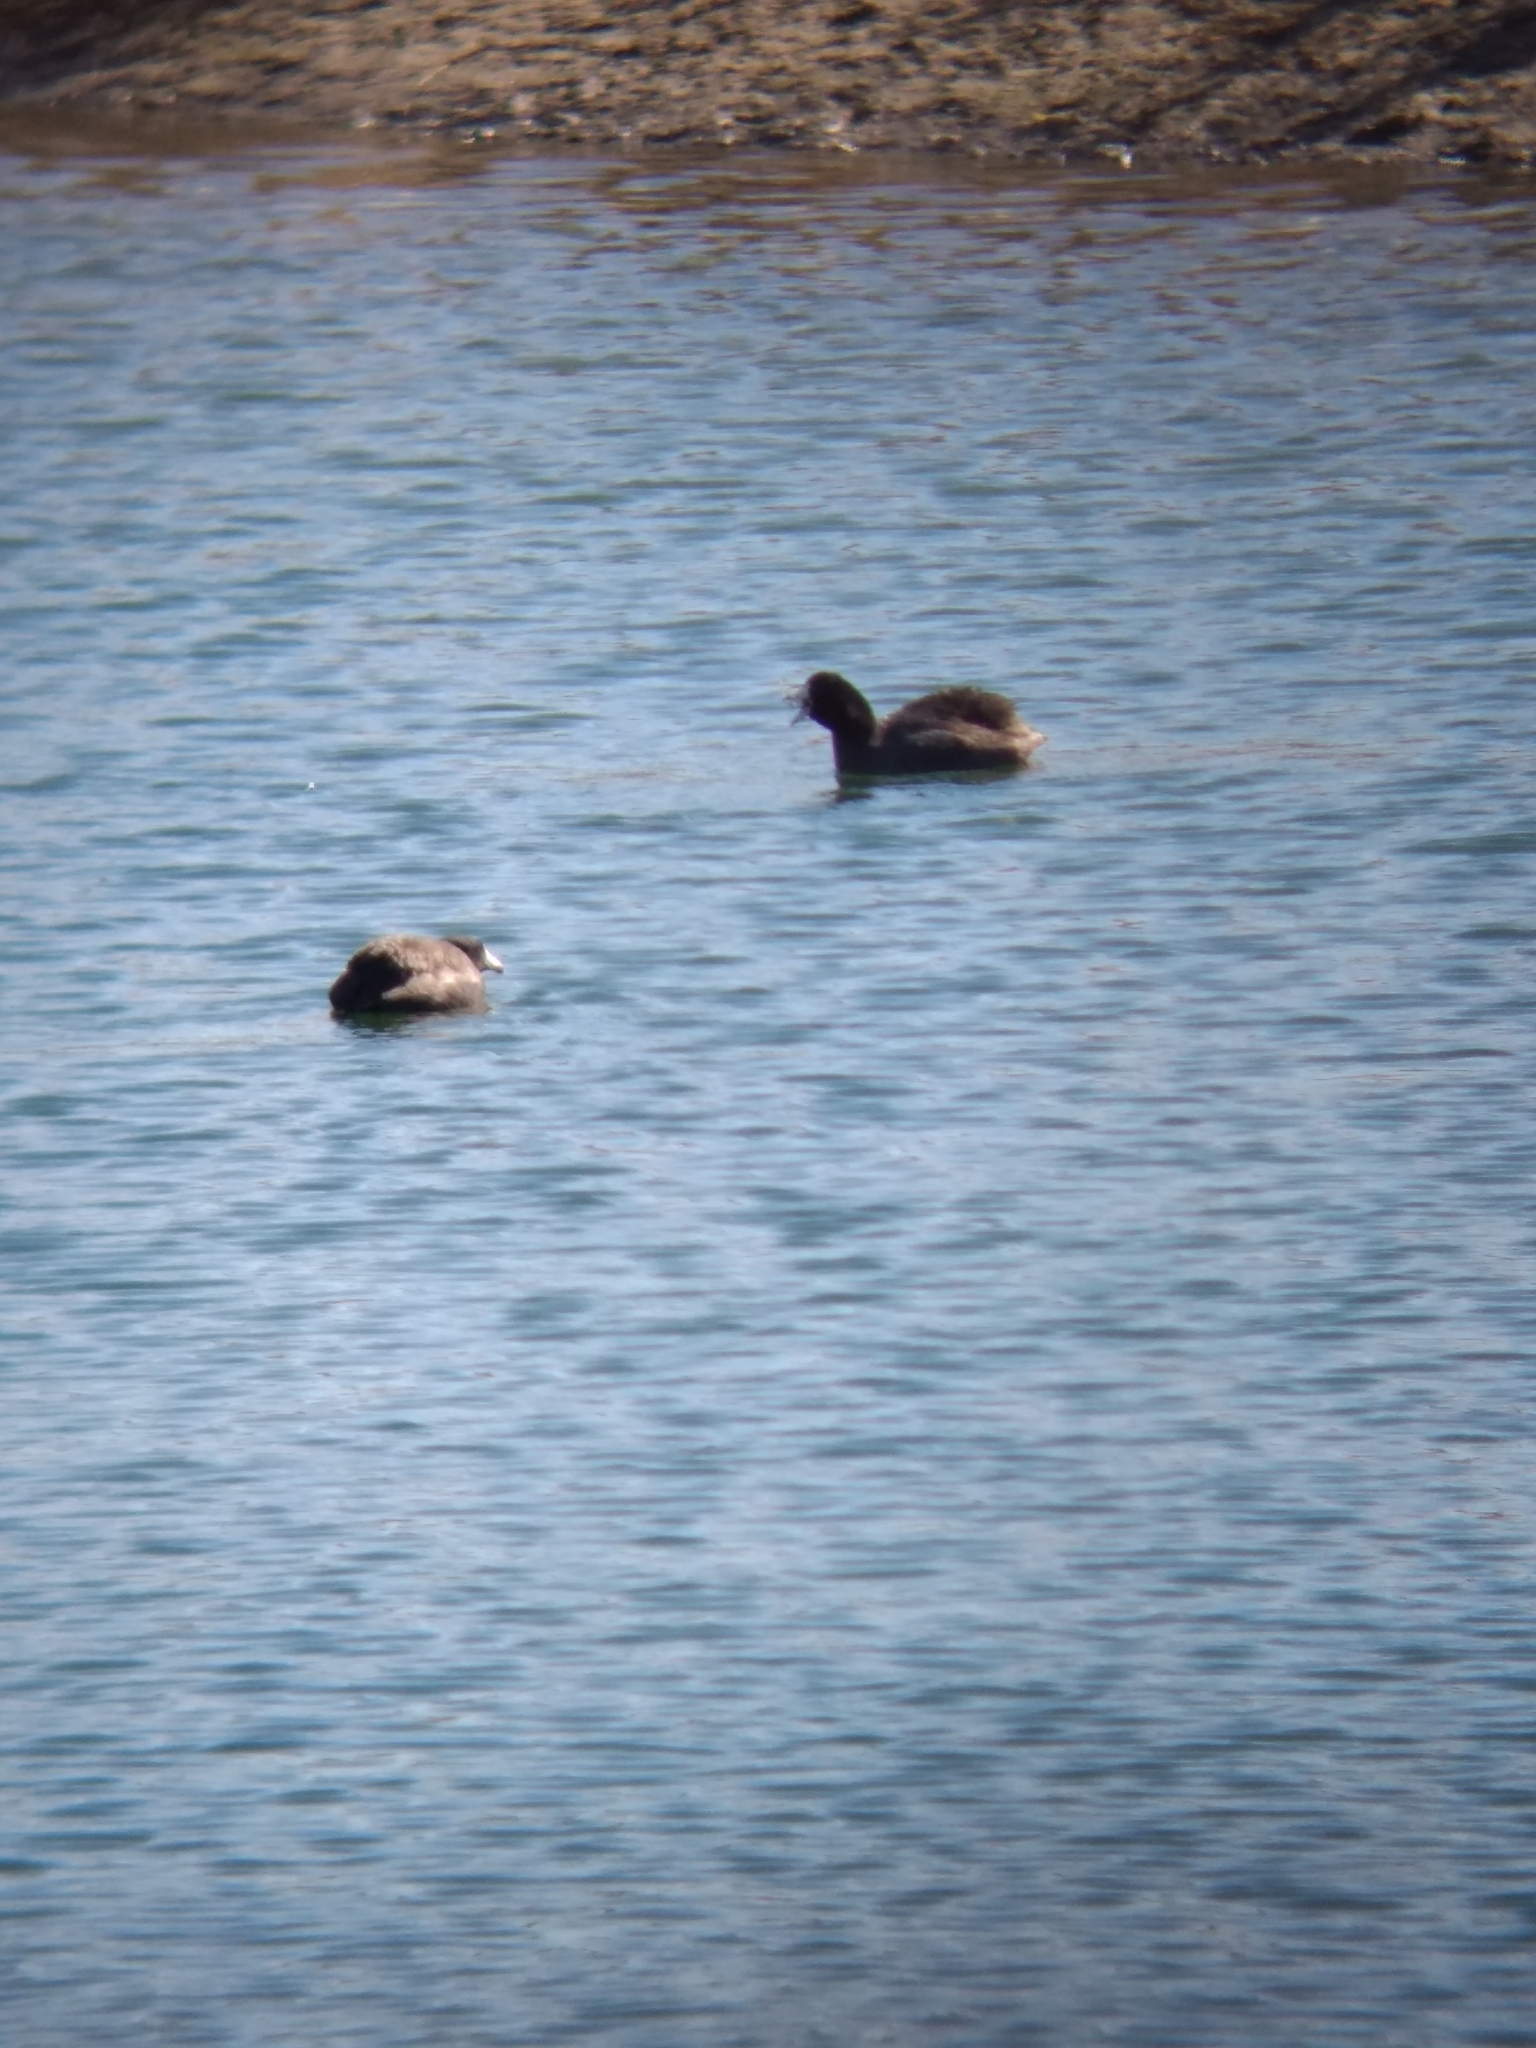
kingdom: Animalia
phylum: Chordata
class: Aves
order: Gruiformes
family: Rallidae
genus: Fulica
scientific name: Fulica americana
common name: American coot
